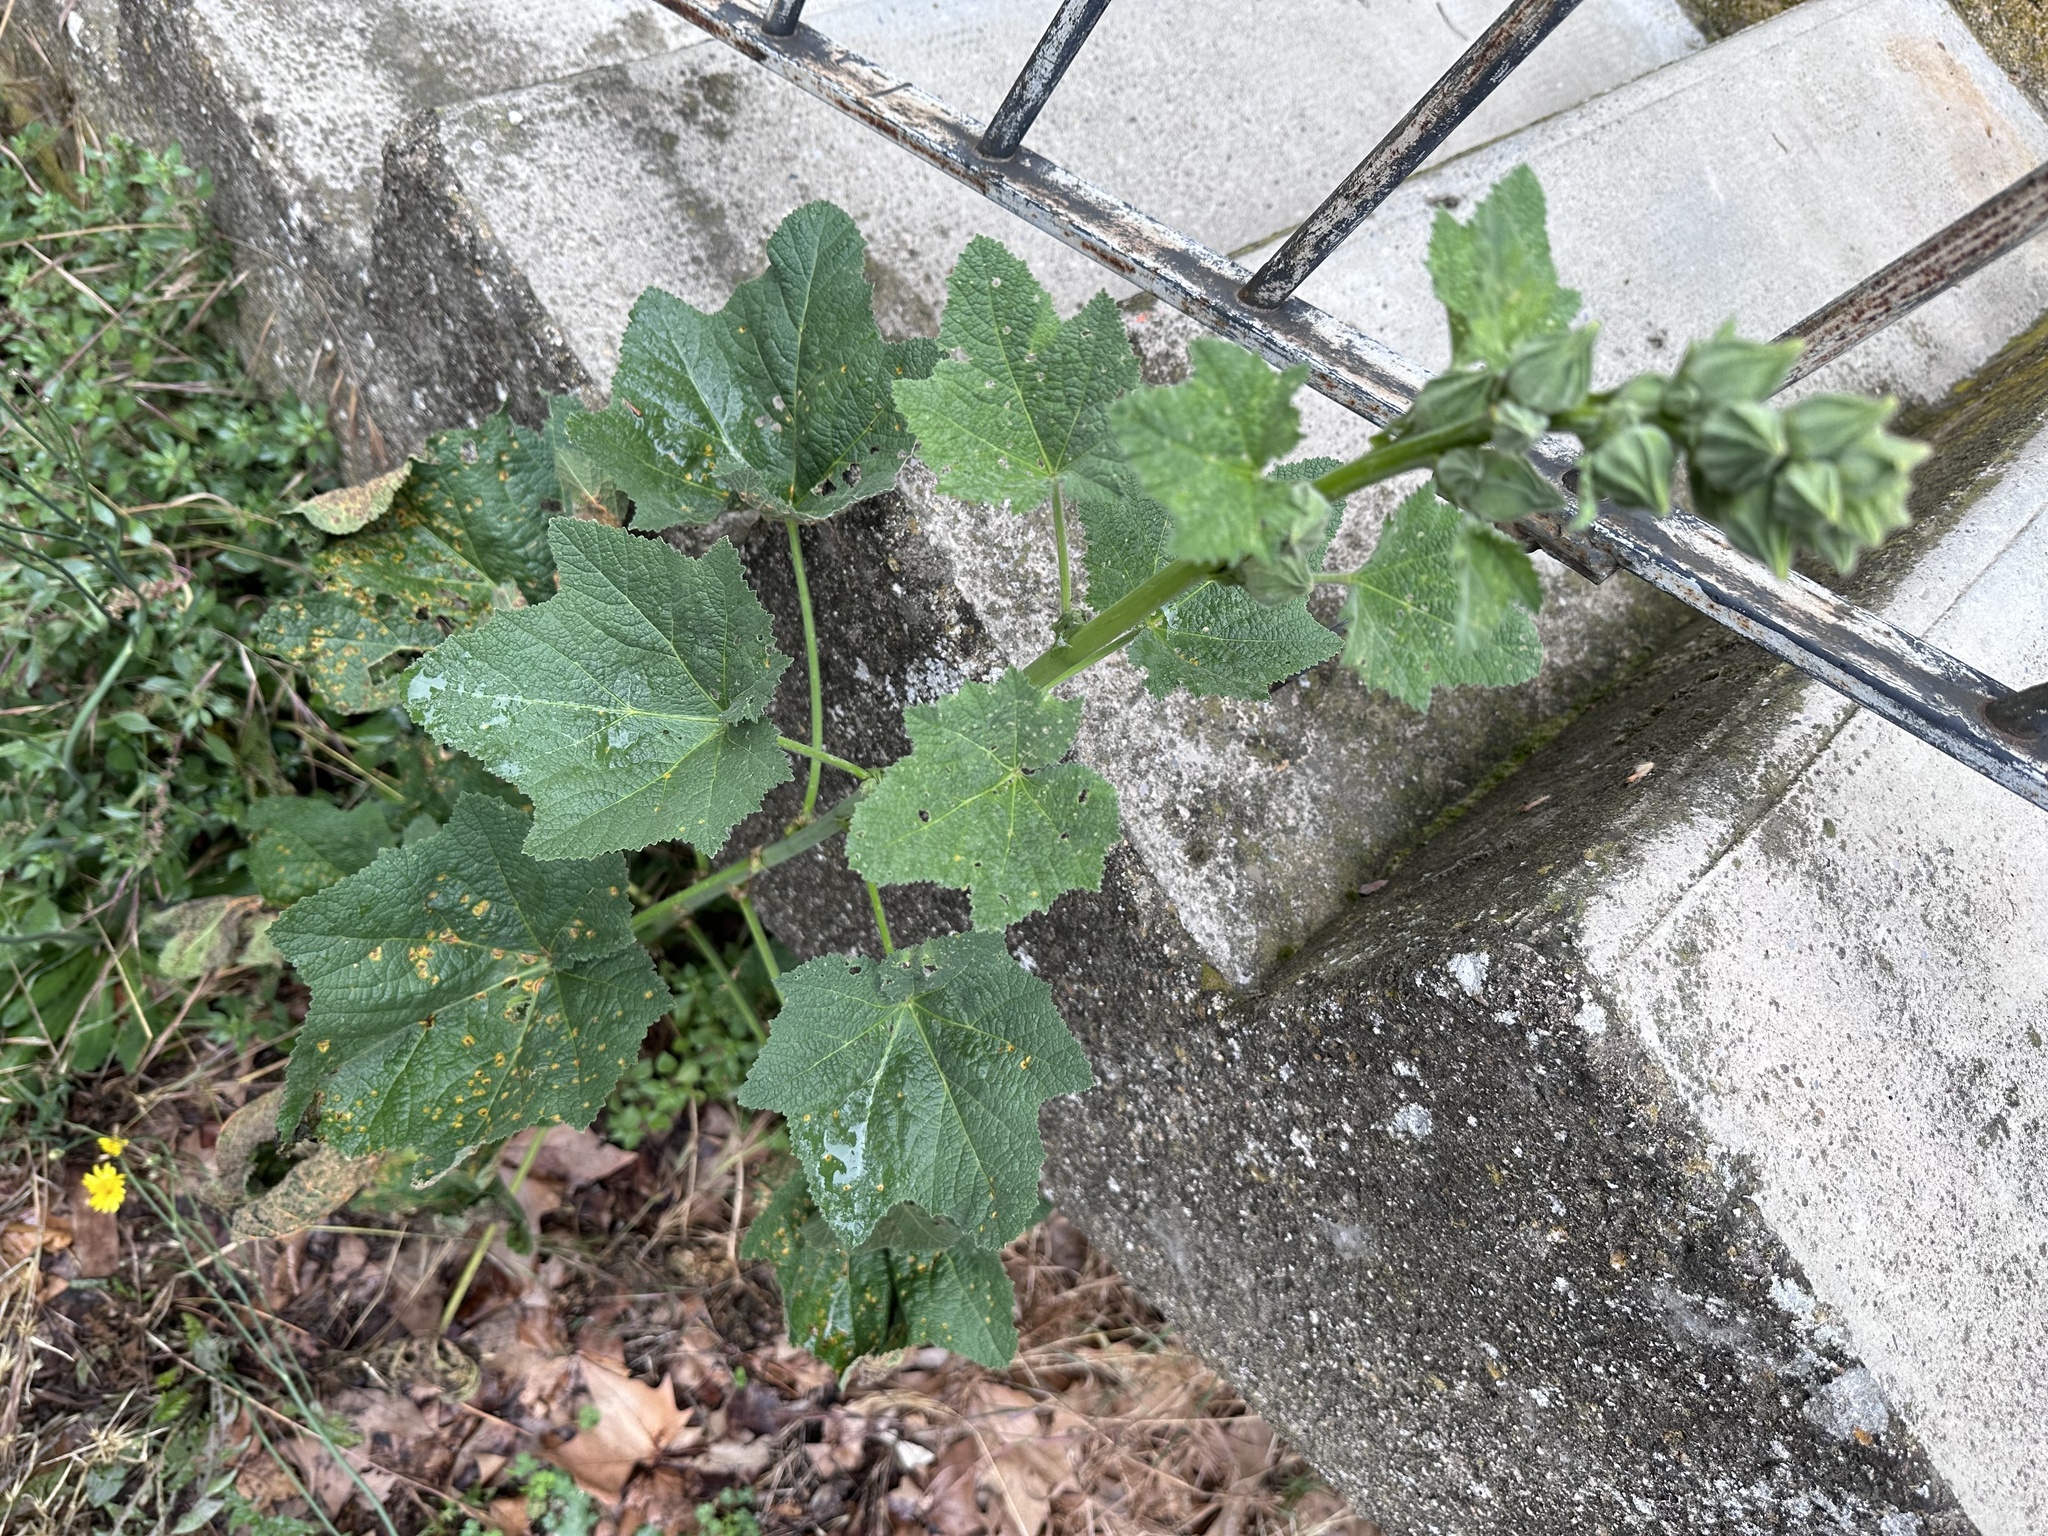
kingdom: Plantae
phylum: Tracheophyta
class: Magnoliopsida
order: Malvales
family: Malvaceae
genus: Alcea
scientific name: Alcea rosea
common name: Hollyhock
